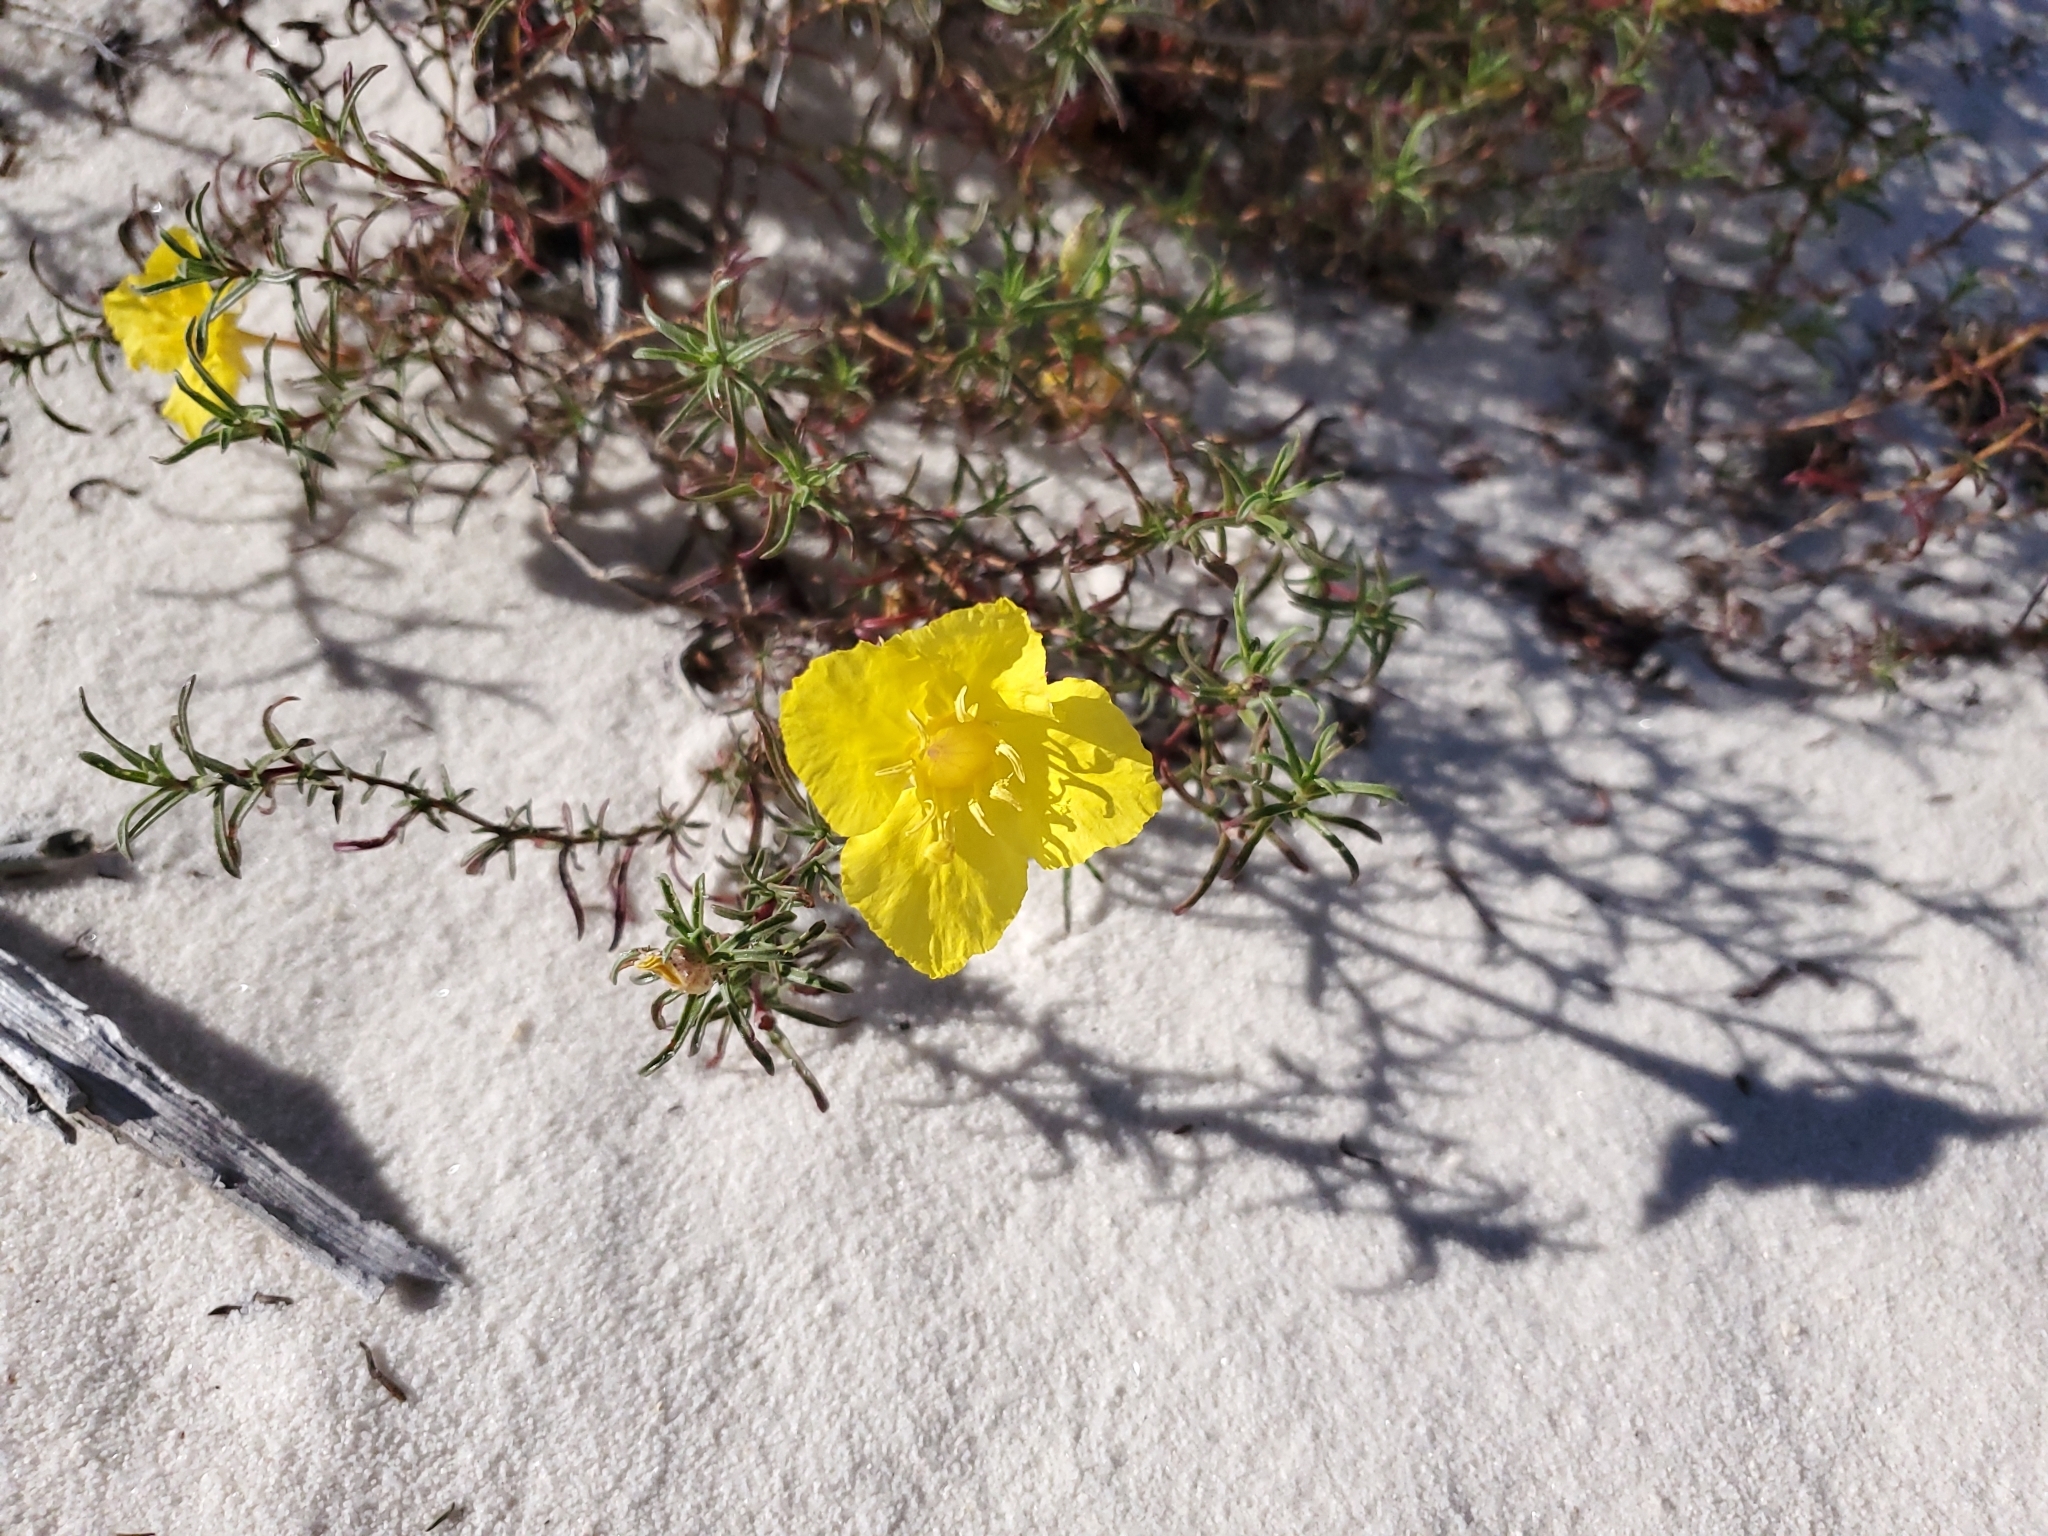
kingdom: Plantae
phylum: Tracheophyta
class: Magnoliopsida
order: Myrtales
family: Onagraceae
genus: Oenothera
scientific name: Oenothera hartwegii
